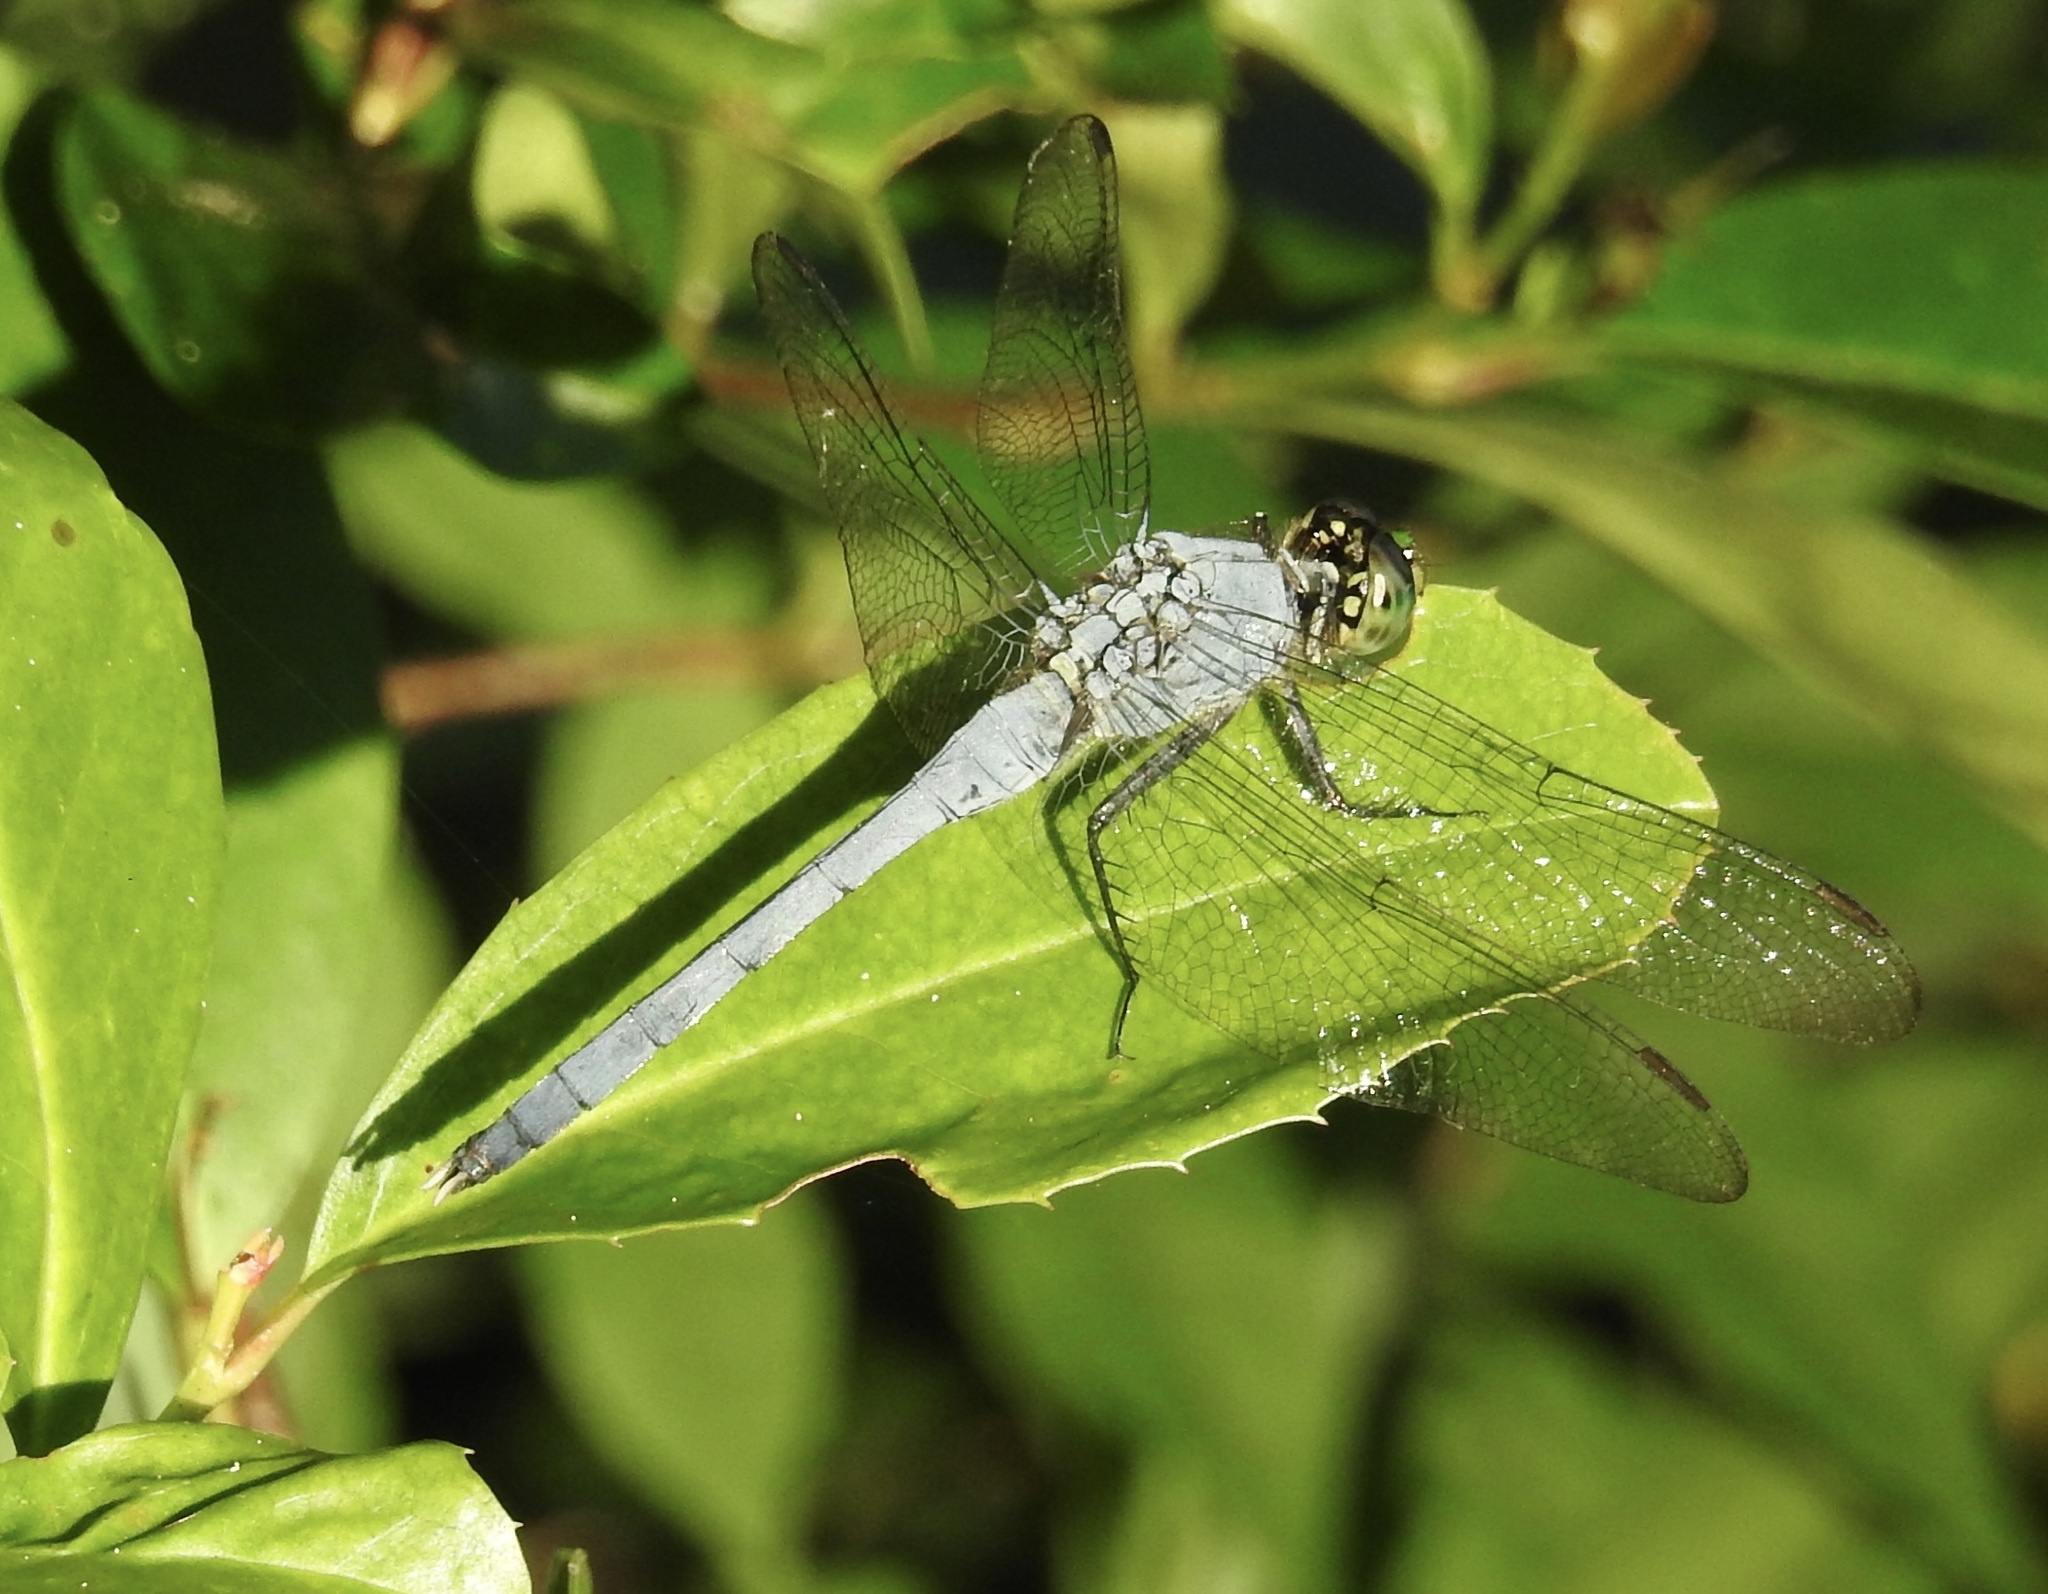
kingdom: Animalia
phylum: Arthropoda
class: Insecta
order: Odonata
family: Libellulidae
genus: Erythemis
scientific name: Erythemis simplicicollis
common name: Eastern pondhawk
